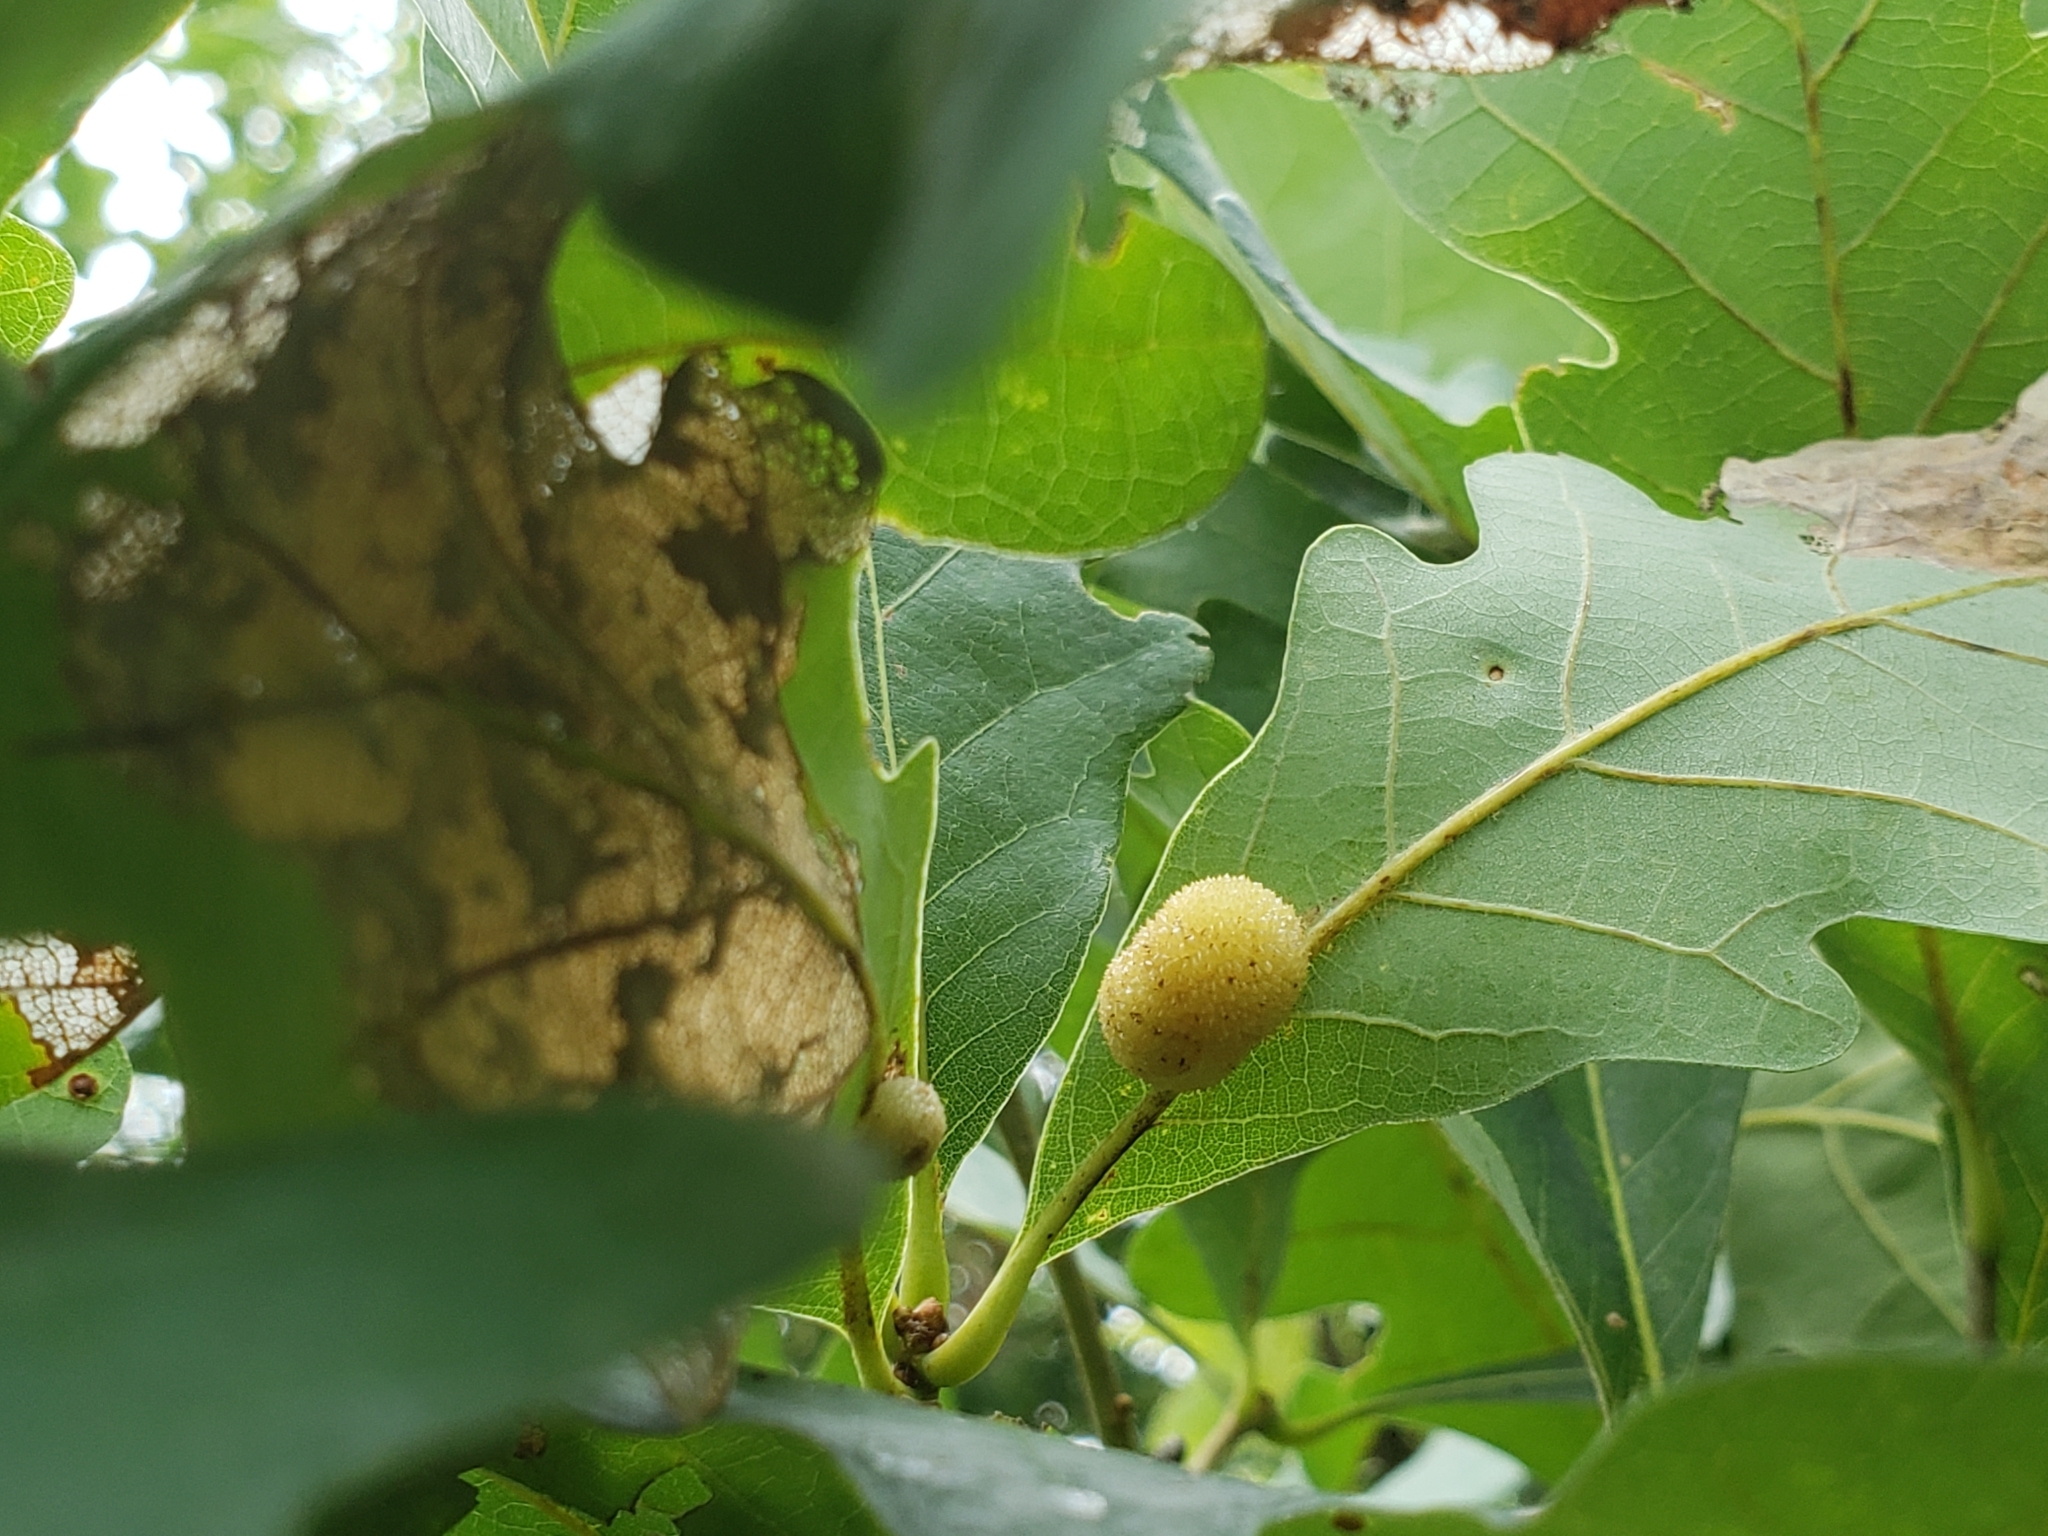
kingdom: Animalia
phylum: Arthropoda
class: Insecta
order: Hymenoptera
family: Cynipidae
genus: Acraspis
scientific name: Acraspis
